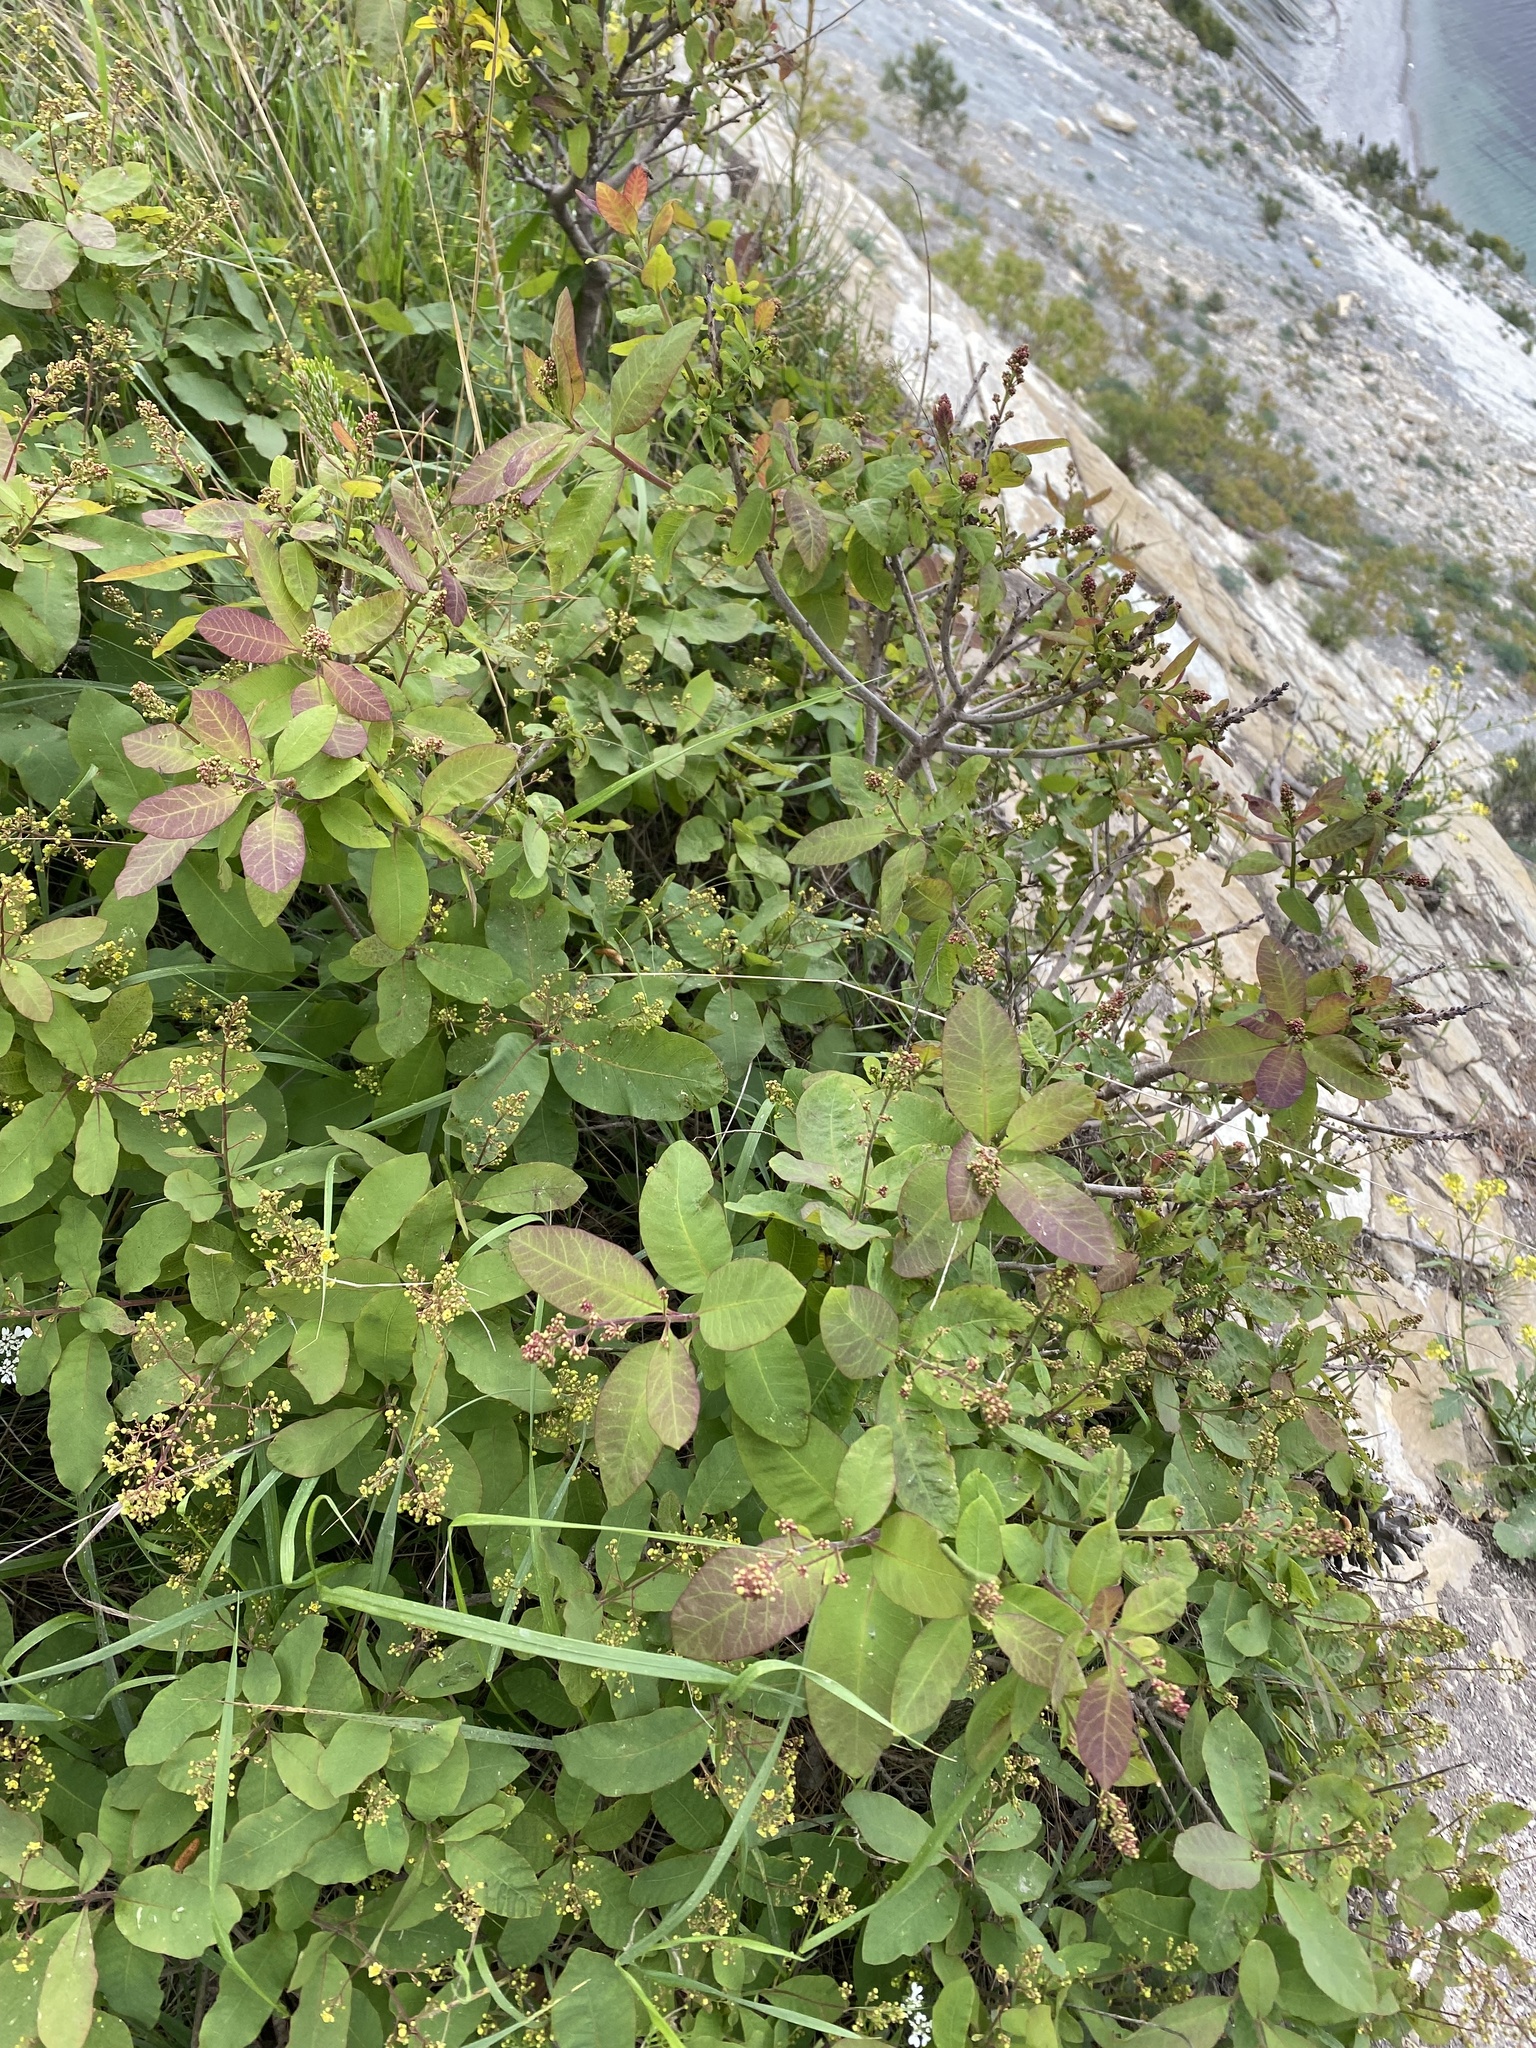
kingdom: Plantae
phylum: Tracheophyta
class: Magnoliopsida
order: Sapindales
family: Anacardiaceae
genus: Cotinus
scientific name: Cotinus coggygria
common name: Smoke-tree
